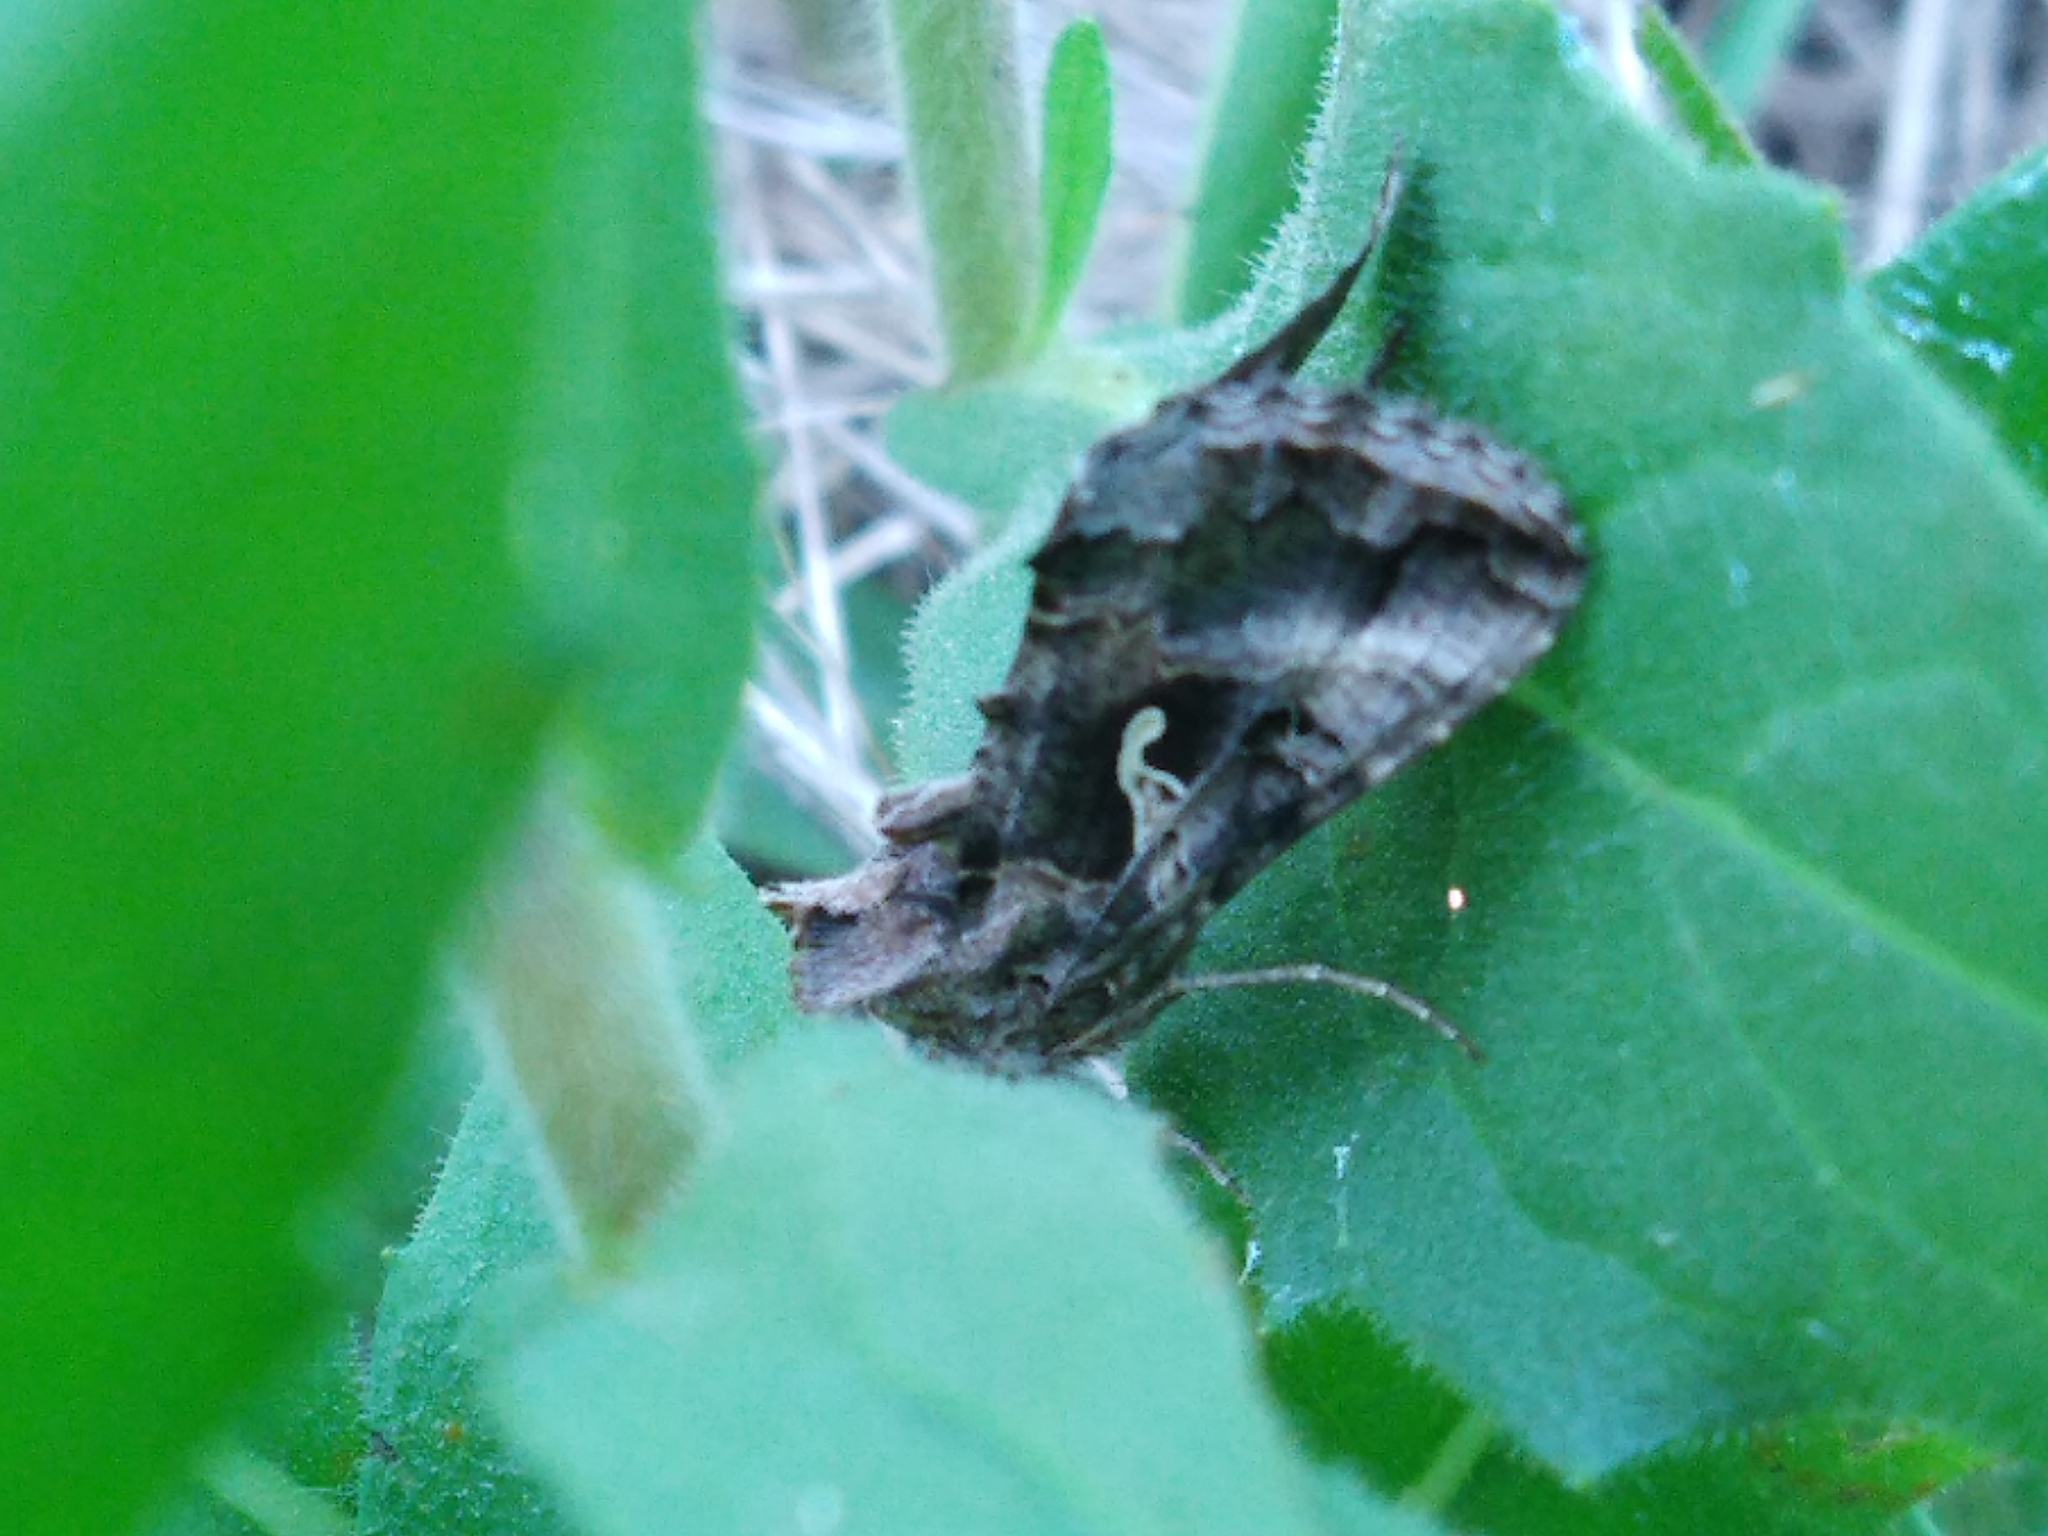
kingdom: Animalia
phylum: Arthropoda
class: Insecta
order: Lepidoptera
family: Noctuidae
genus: Autographa
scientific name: Autographa gamma
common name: Silver y
